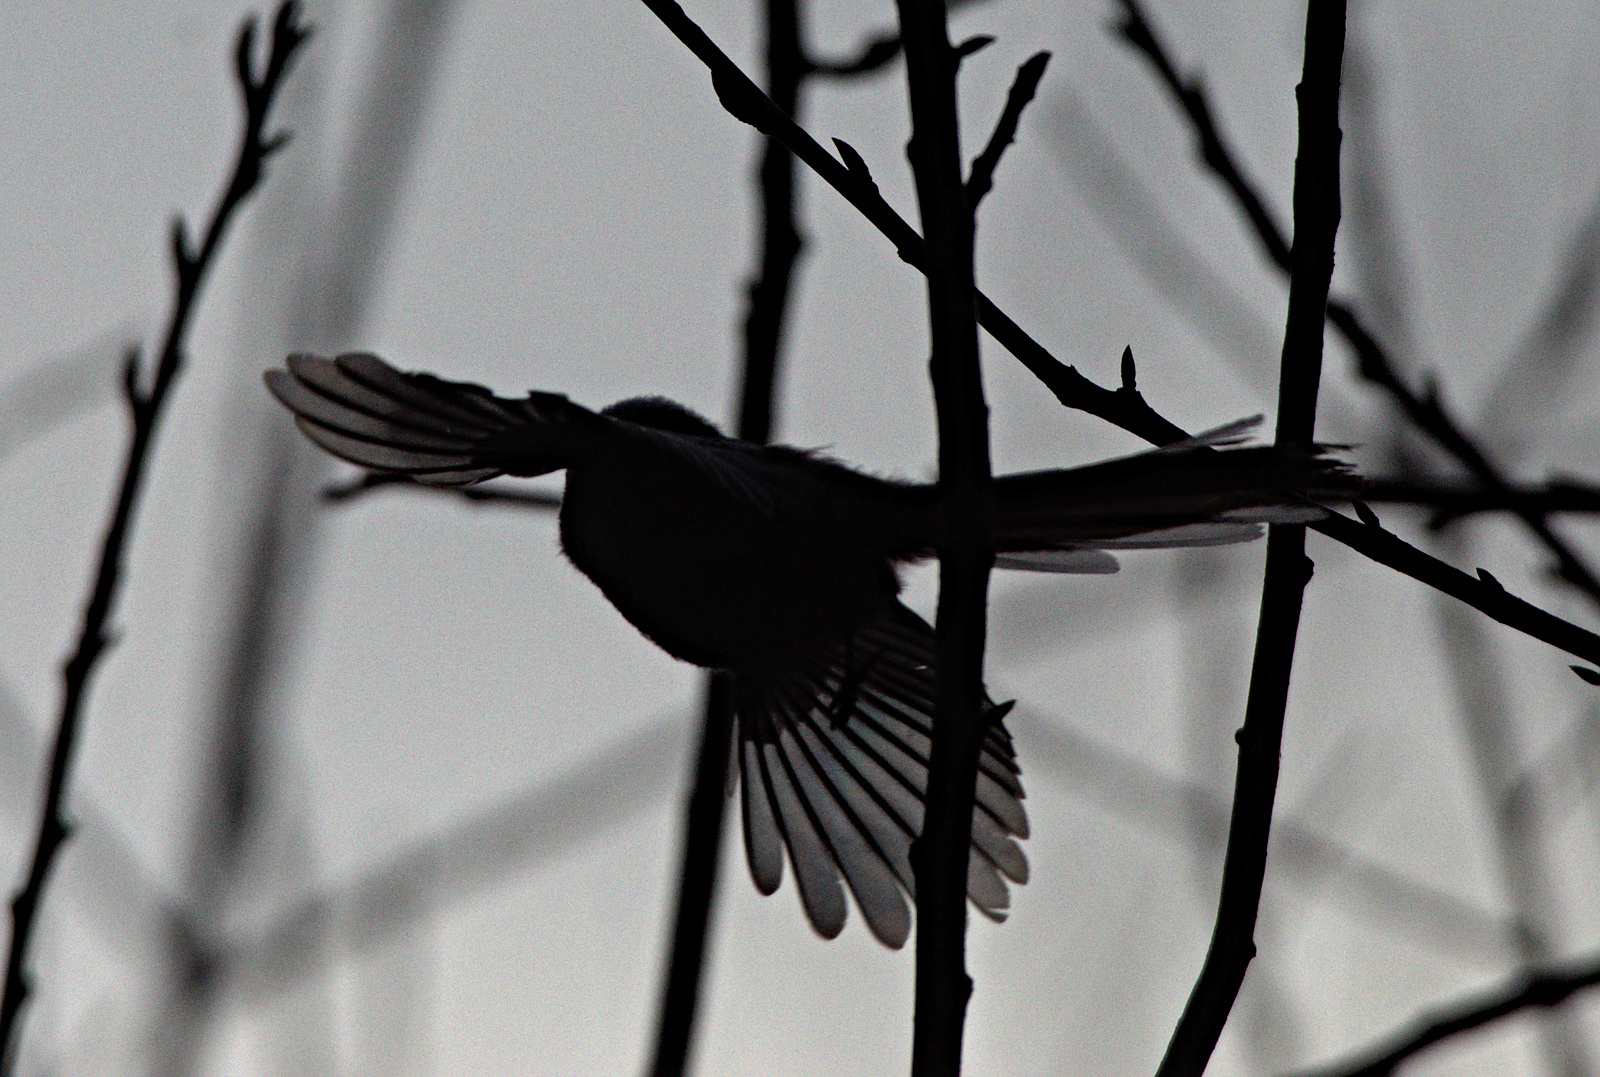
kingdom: Animalia
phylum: Chordata
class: Aves
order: Passeriformes
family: Corvidae
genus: Pica
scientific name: Pica pica
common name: Eurasian magpie
